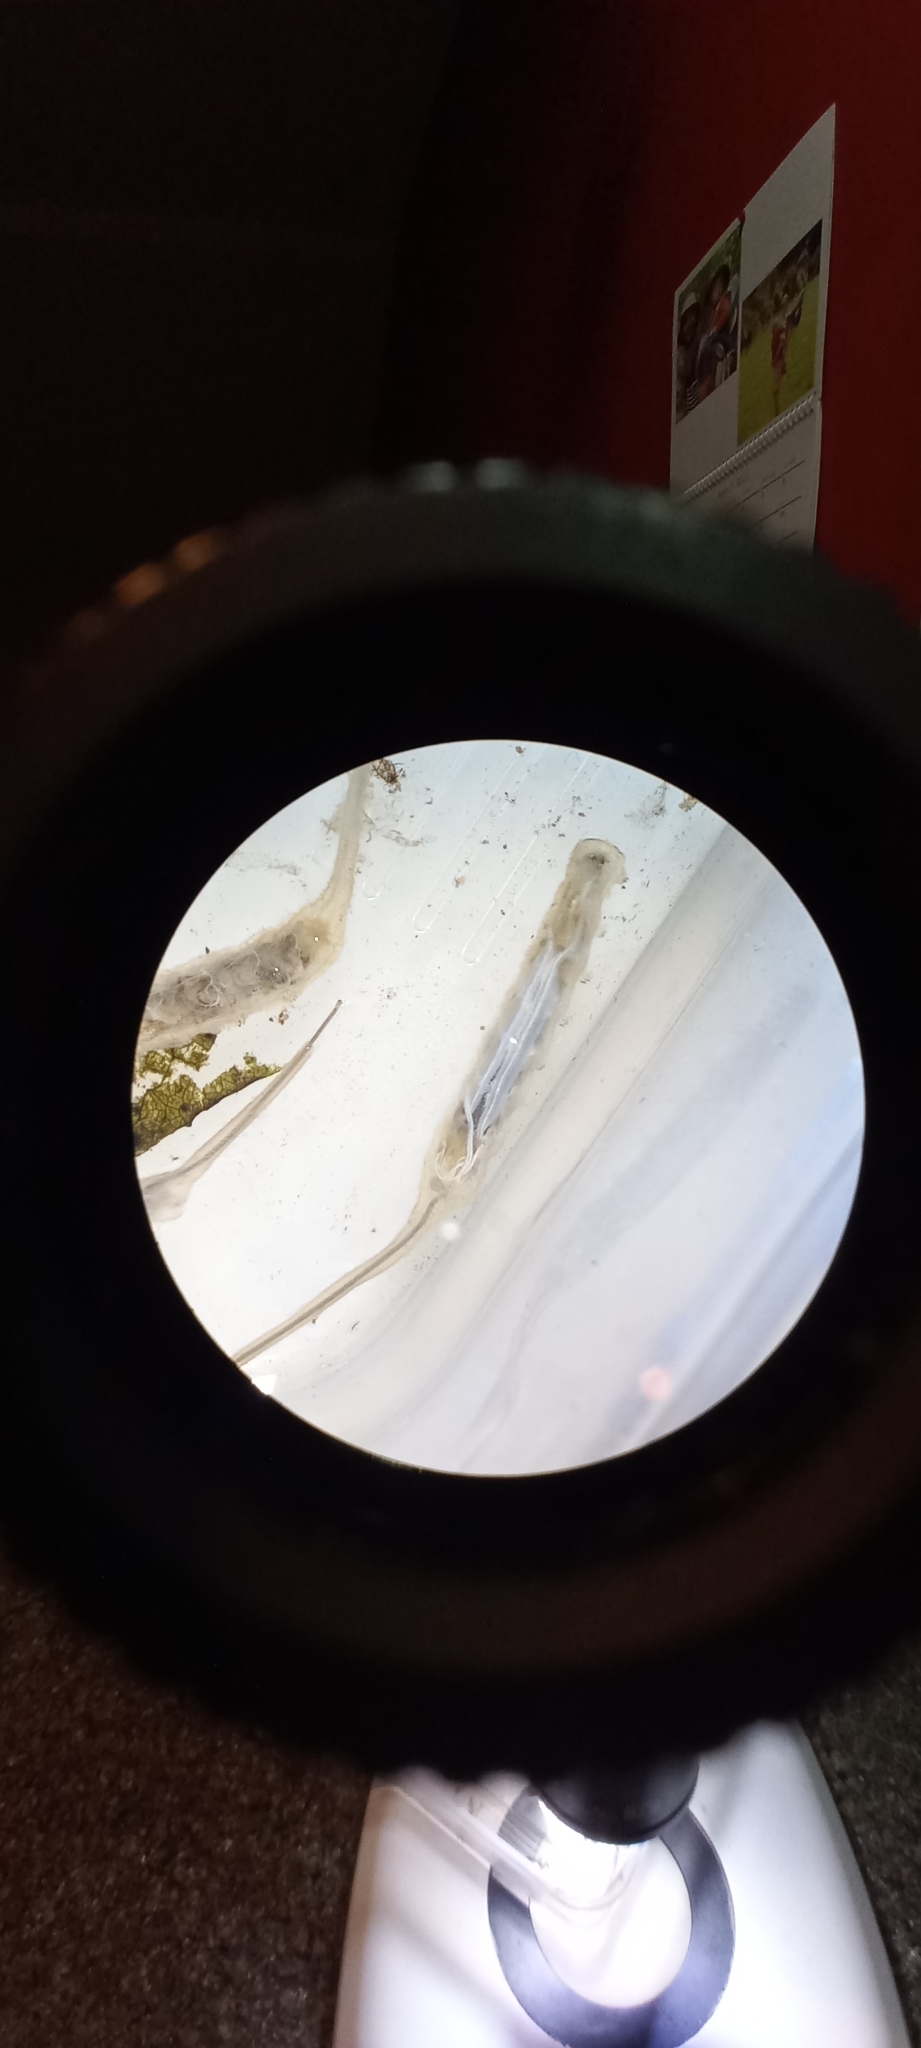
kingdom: Animalia
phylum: Arthropoda
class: Insecta
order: Diptera
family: Syrphidae
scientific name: Syrphidae
